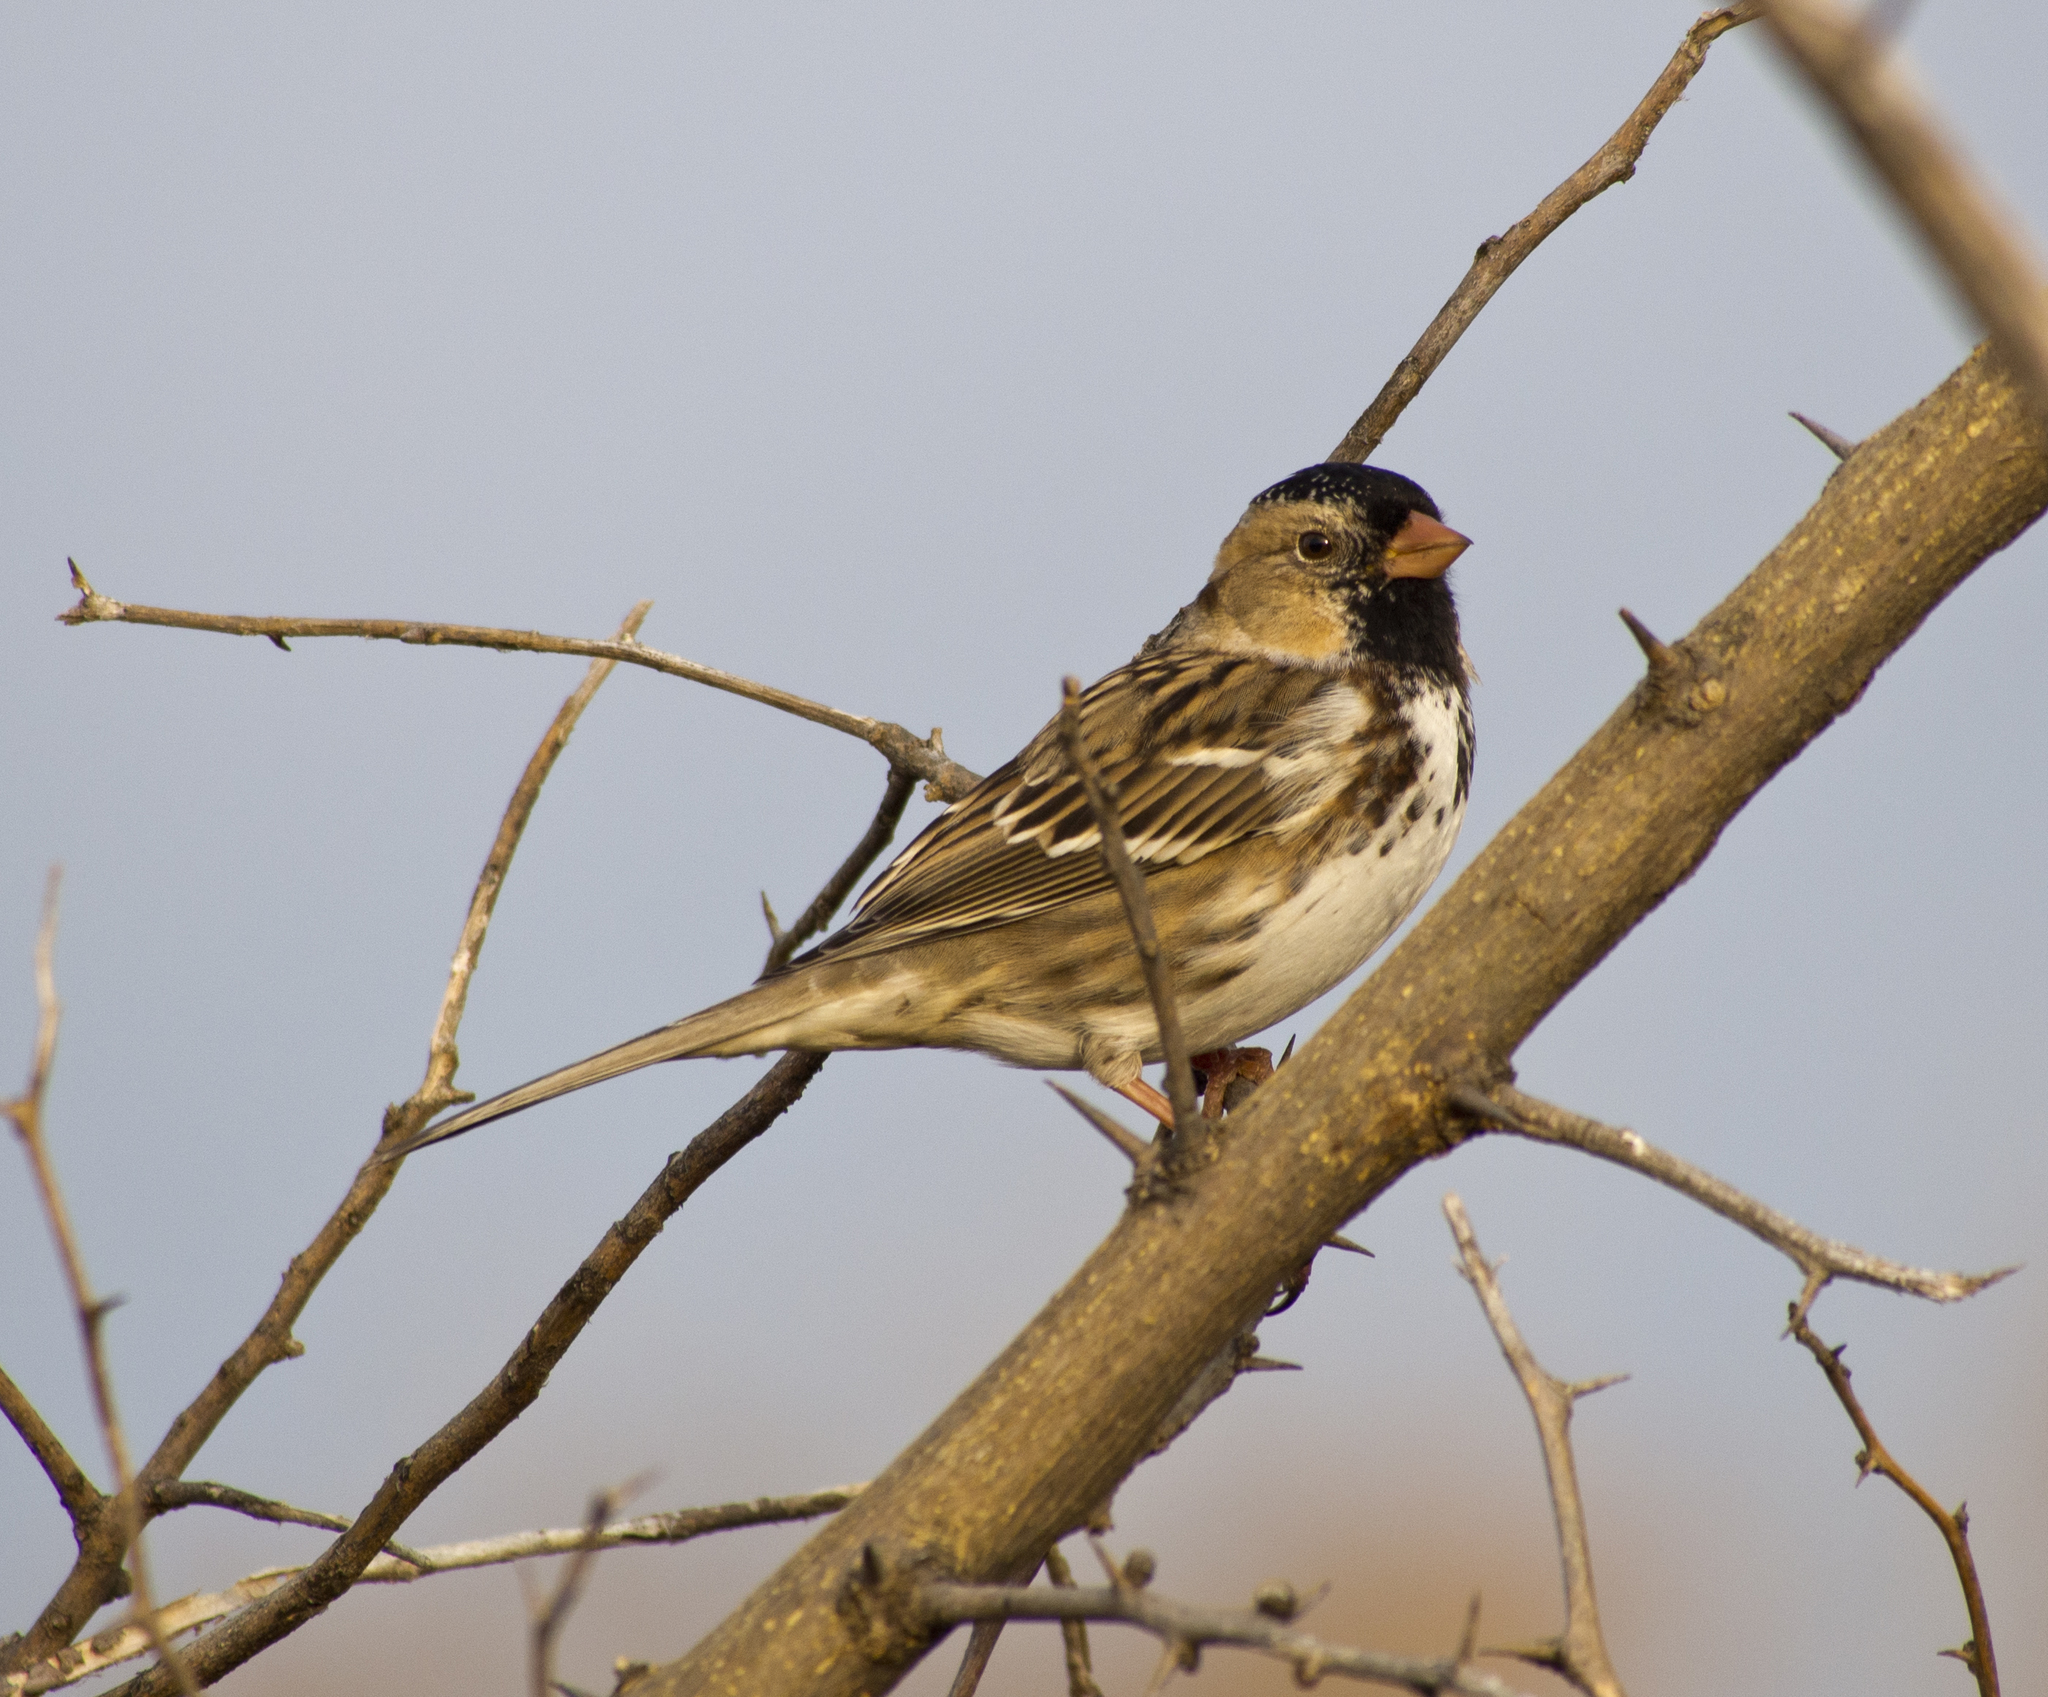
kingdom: Animalia
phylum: Chordata
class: Aves
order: Passeriformes
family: Passerellidae
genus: Zonotrichia
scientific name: Zonotrichia querula
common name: Harris's sparrow
